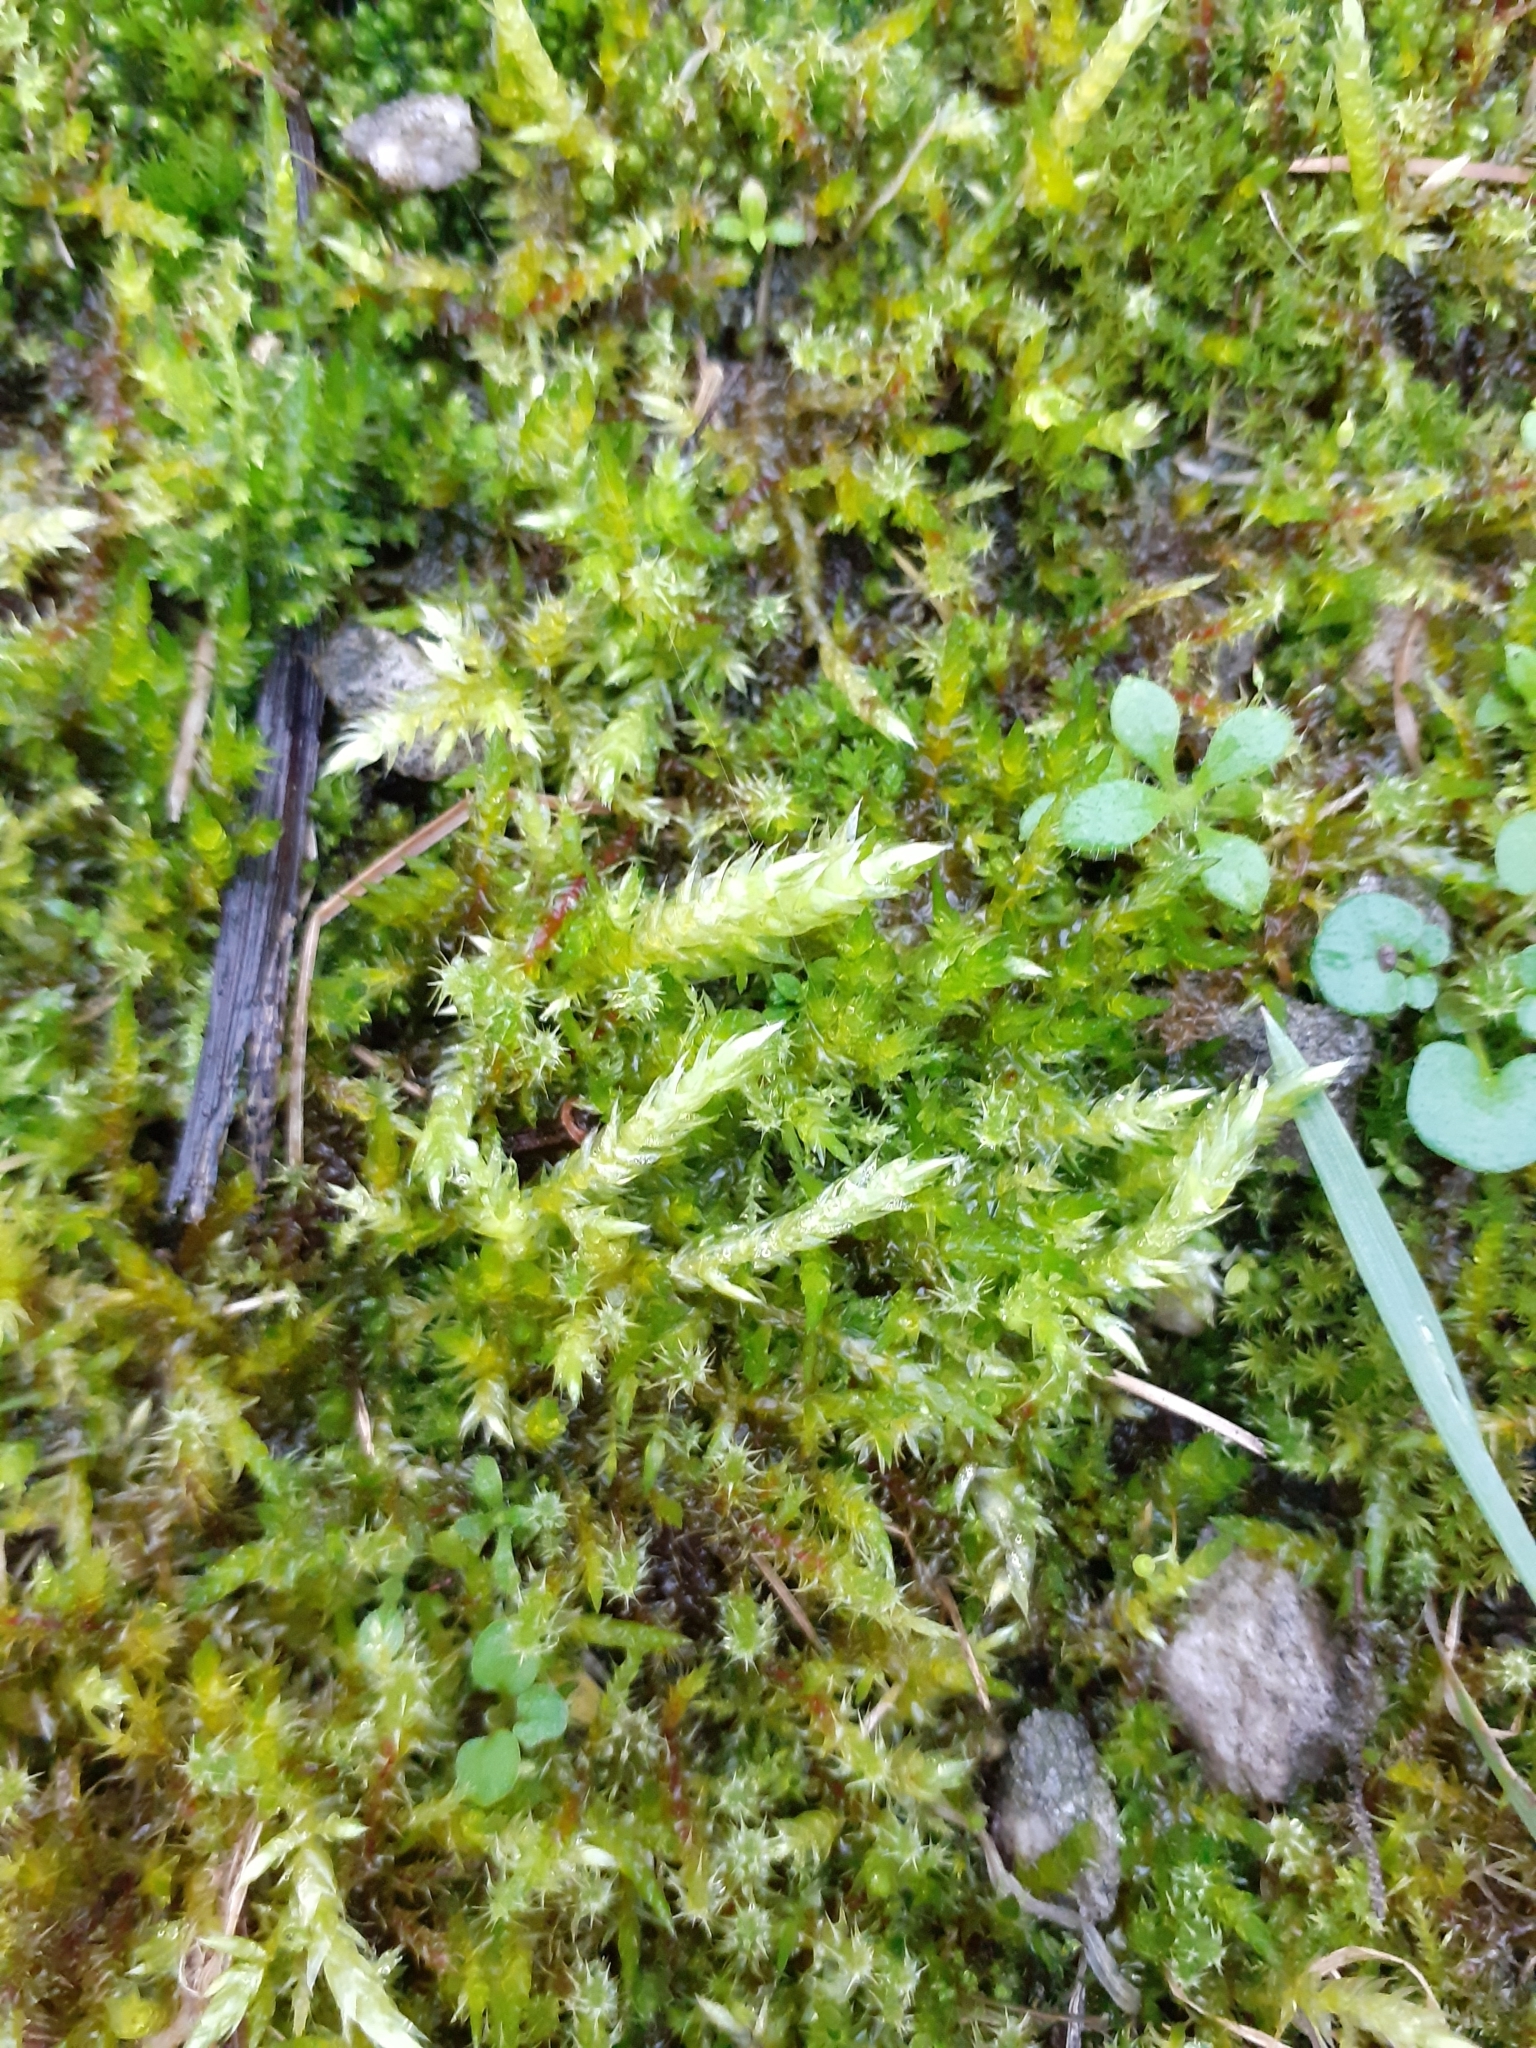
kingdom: Plantae
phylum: Bryophyta
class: Bryopsida
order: Hypnales
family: Brachytheciaceae
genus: Brachythecium
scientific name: Brachythecium rutabulum
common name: Rough-stalked feather-moss
